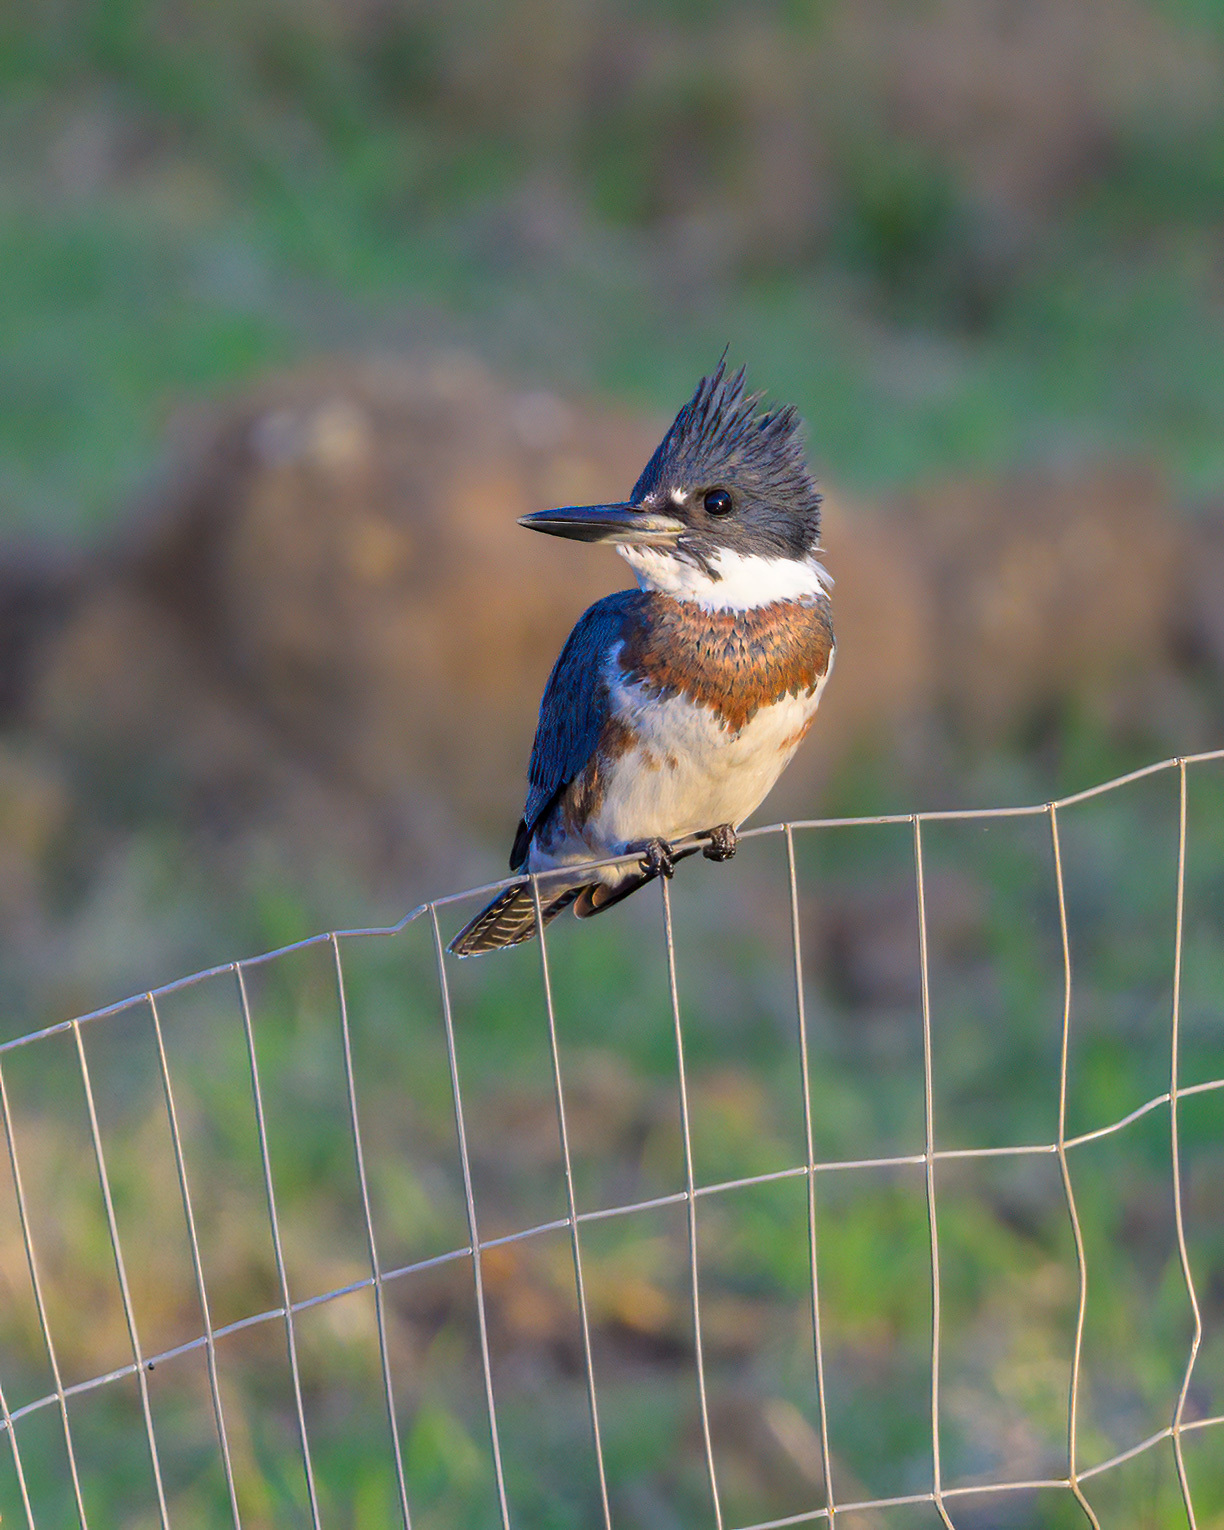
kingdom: Animalia
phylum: Chordata
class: Aves
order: Coraciiformes
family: Alcedinidae
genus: Megaceryle
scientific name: Megaceryle alcyon
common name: Belted kingfisher
